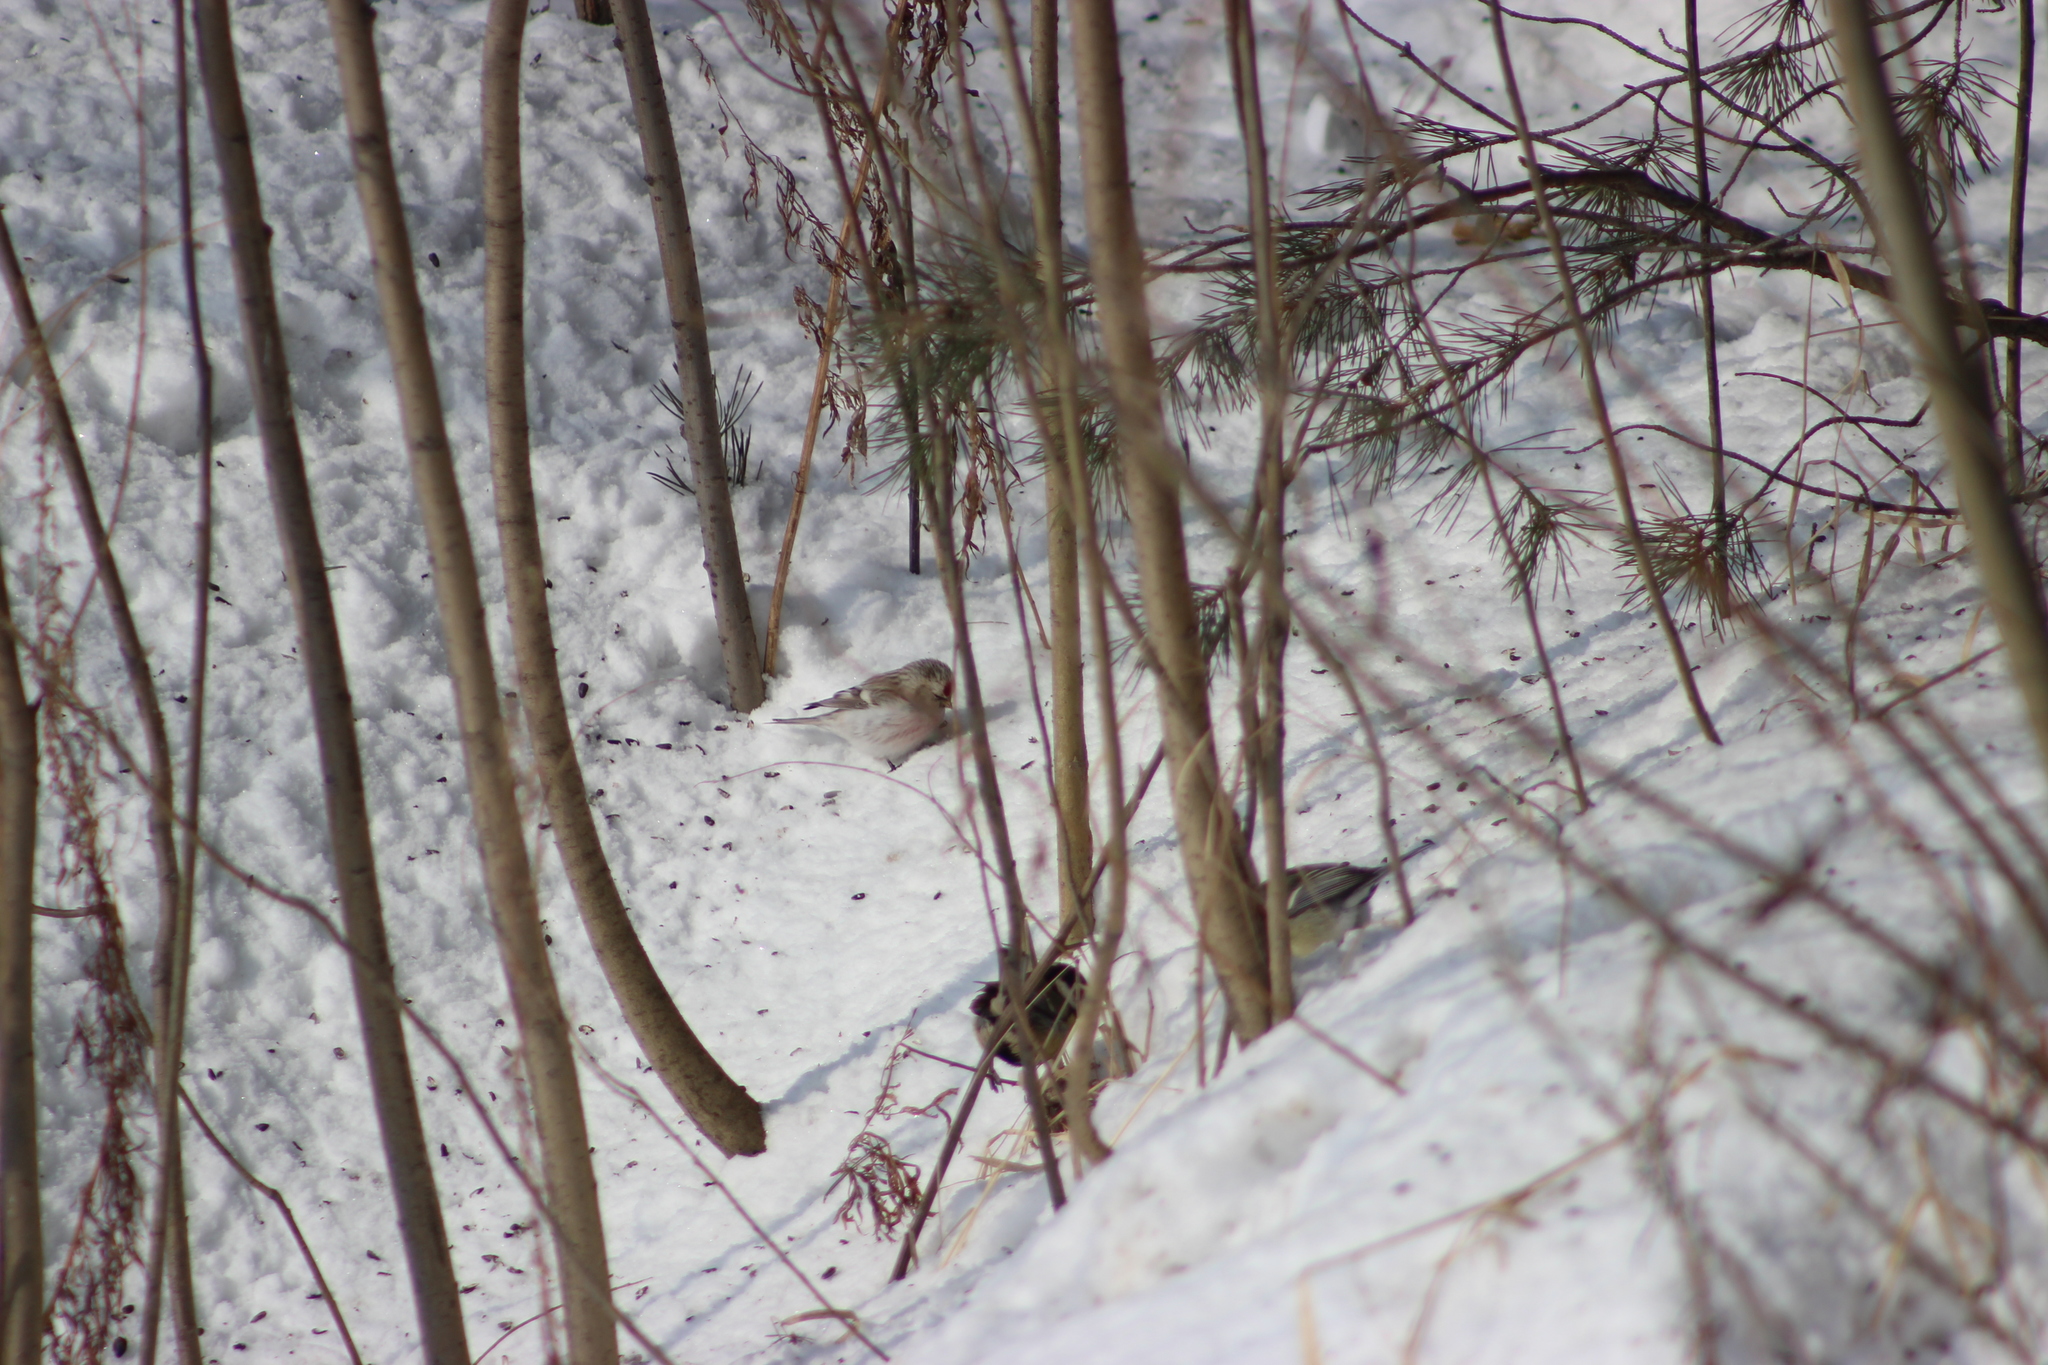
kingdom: Animalia
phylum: Chordata
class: Aves
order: Passeriformes
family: Fringillidae
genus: Acanthis
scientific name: Acanthis flammea
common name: Common redpoll
